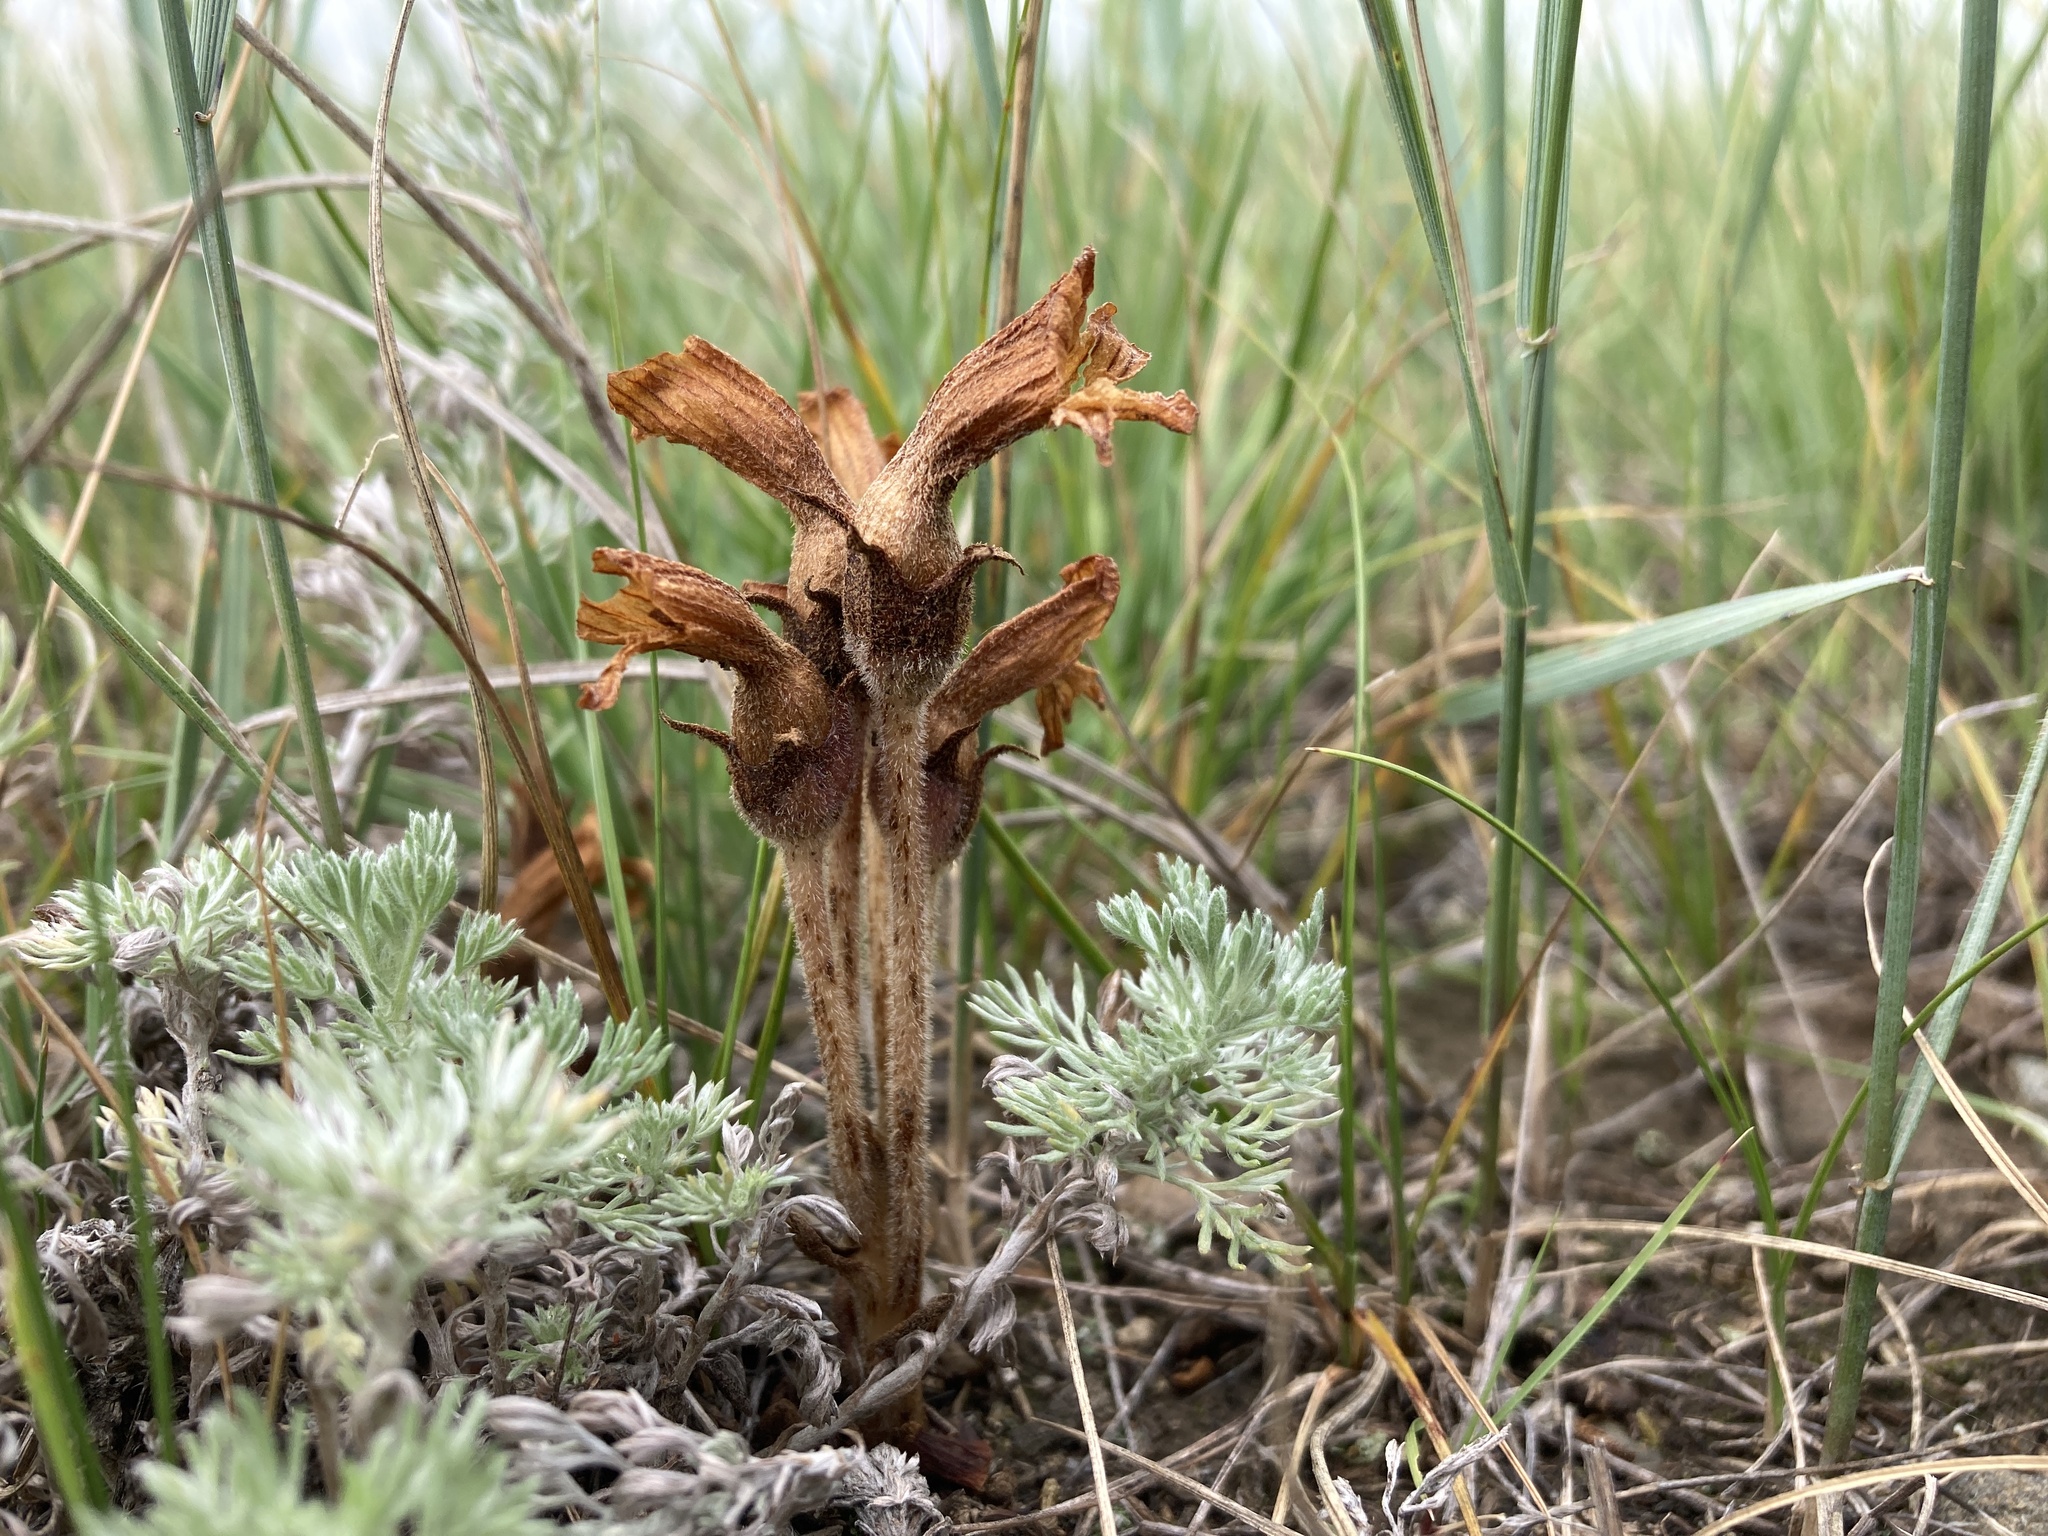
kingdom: Plantae
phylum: Tracheophyta
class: Magnoliopsida
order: Lamiales
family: Orobanchaceae
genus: Aphyllon
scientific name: Aphyllon fasciculatum
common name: Clustered broomrape
